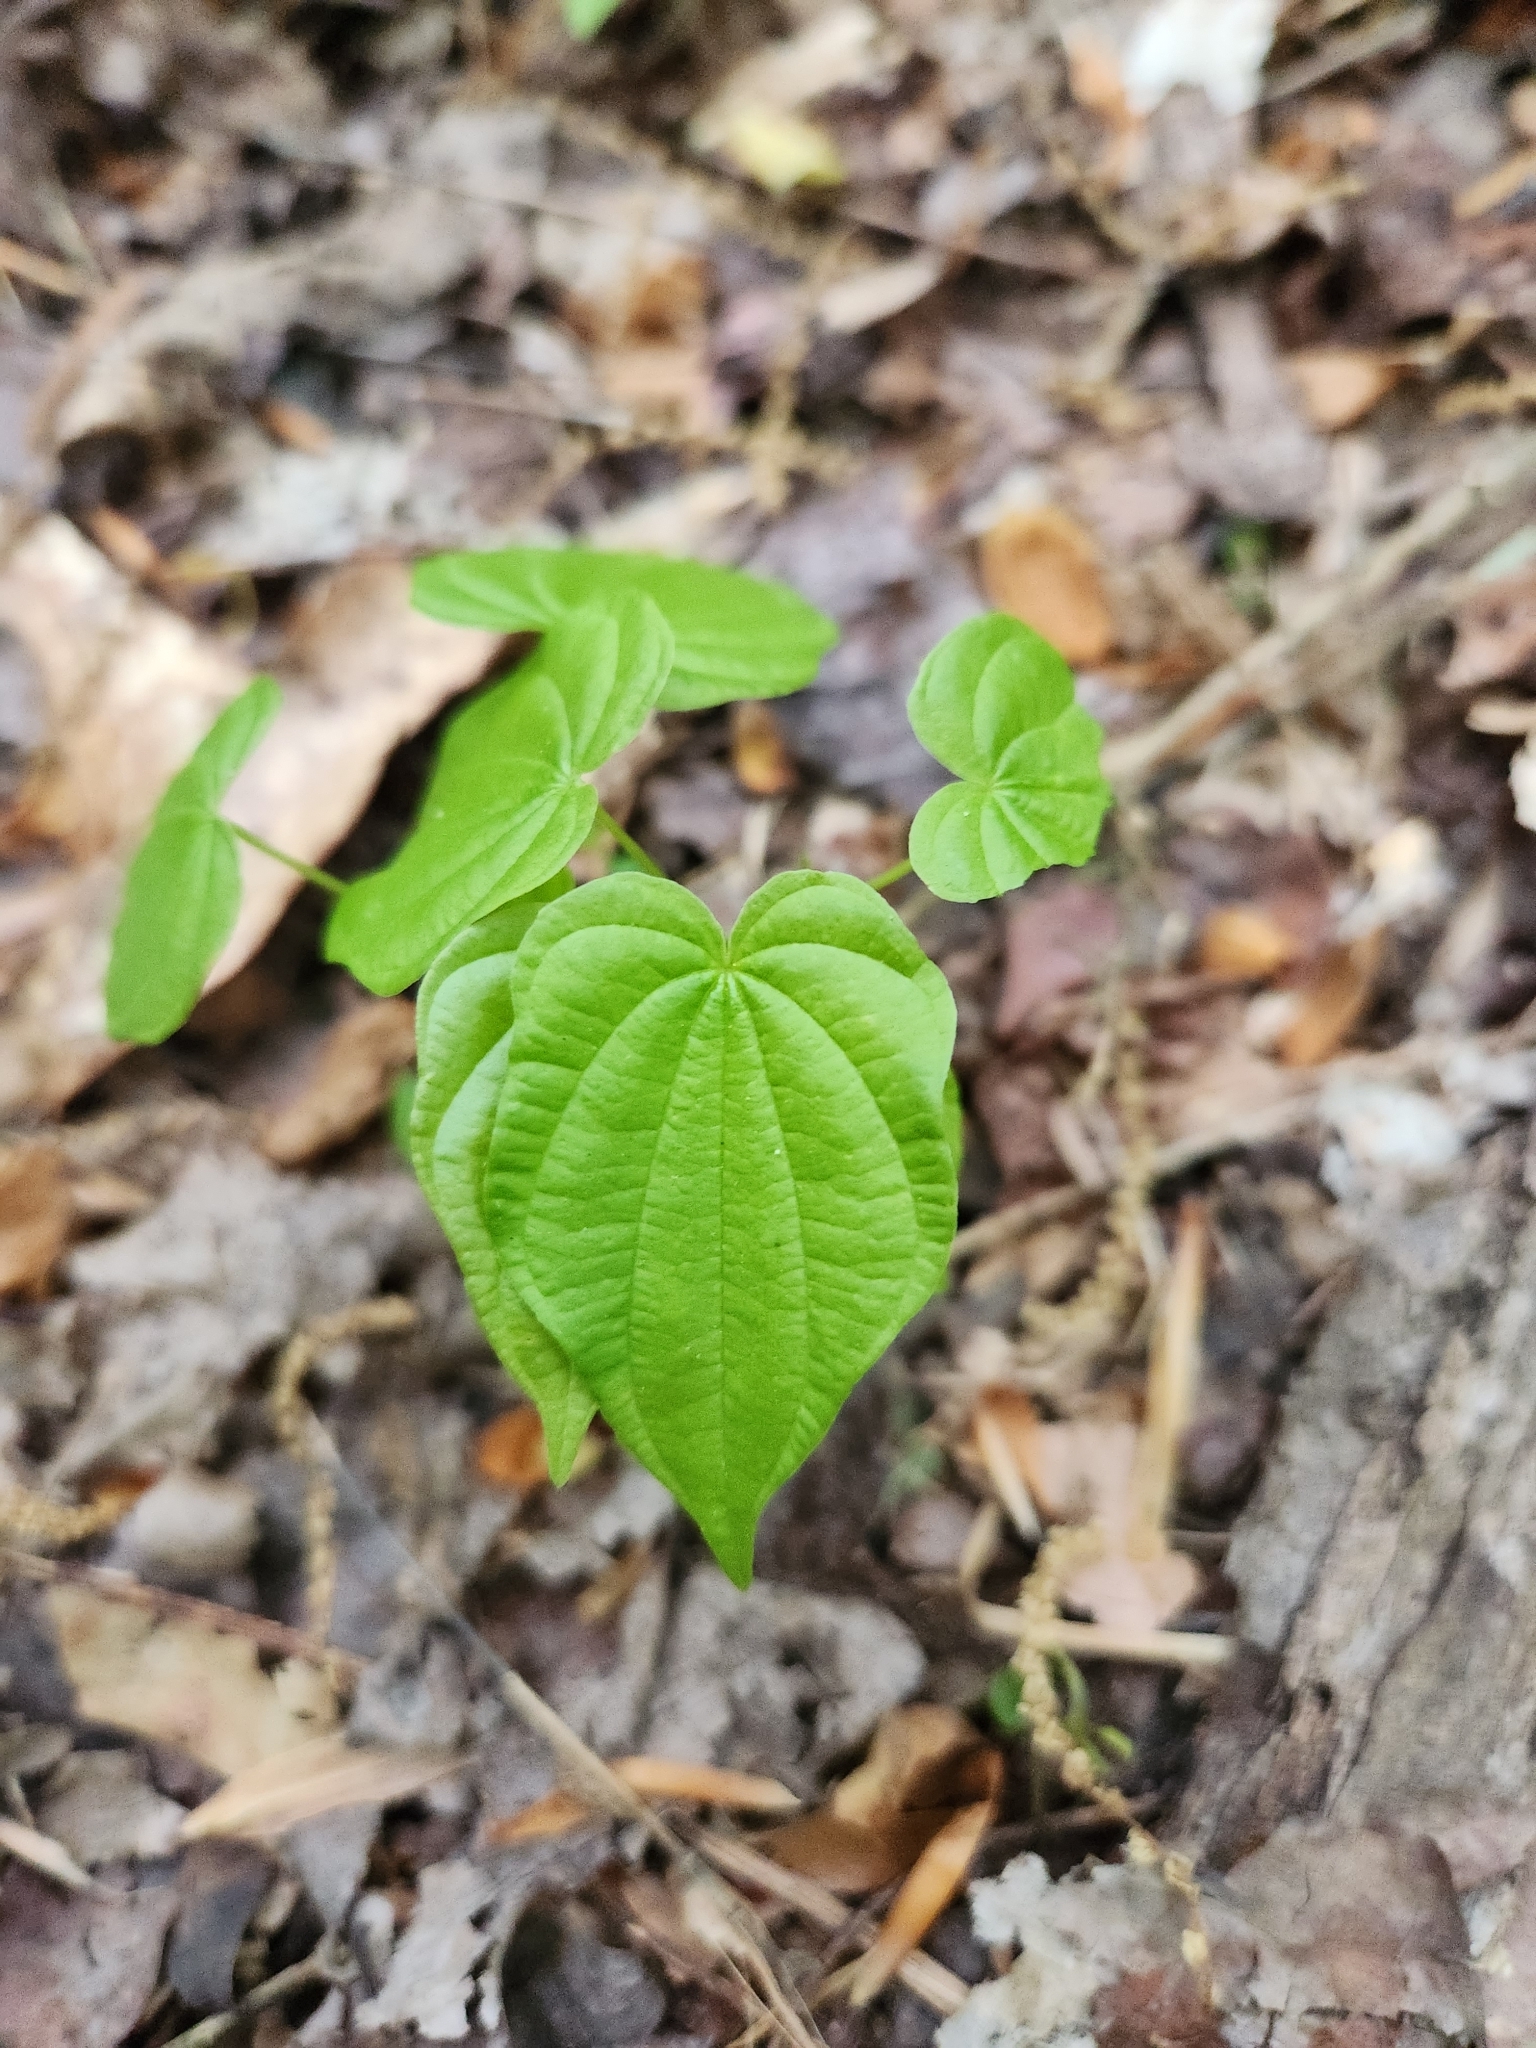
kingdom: Plantae
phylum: Tracheophyta
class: Liliopsida
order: Dioscoreales
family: Dioscoreaceae
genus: Dioscorea
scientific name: Dioscorea villosa
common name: Wild yam
